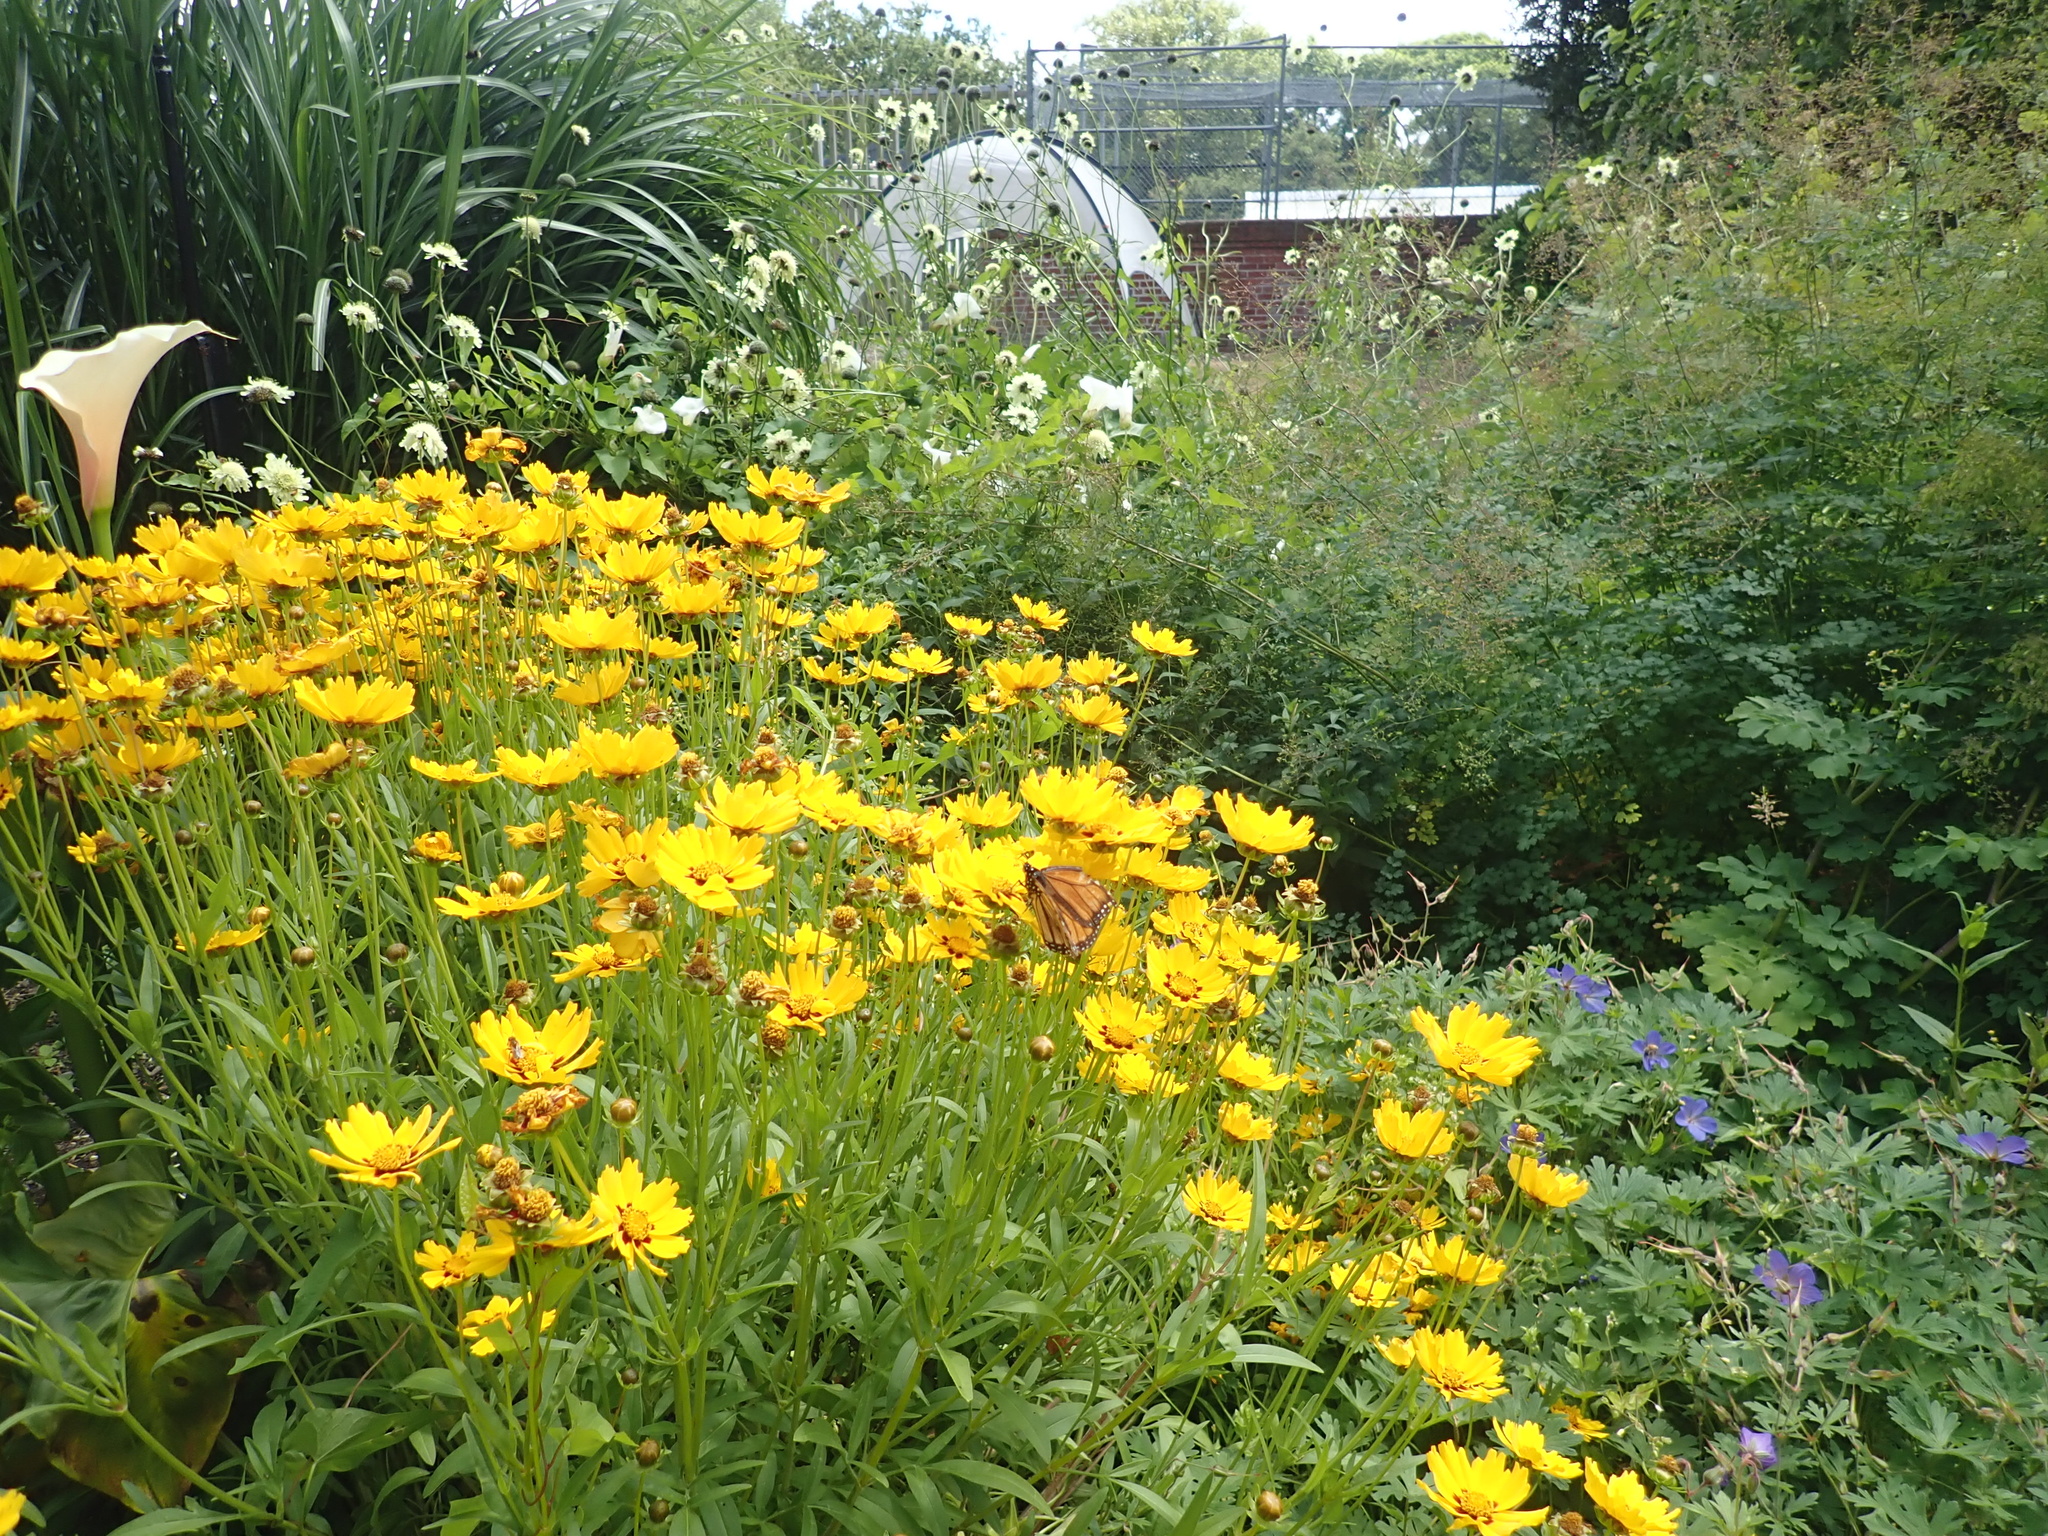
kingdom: Animalia
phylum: Arthropoda
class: Insecta
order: Lepidoptera
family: Nymphalidae
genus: Danaus
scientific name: Danaus plexippus
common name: Monarch
